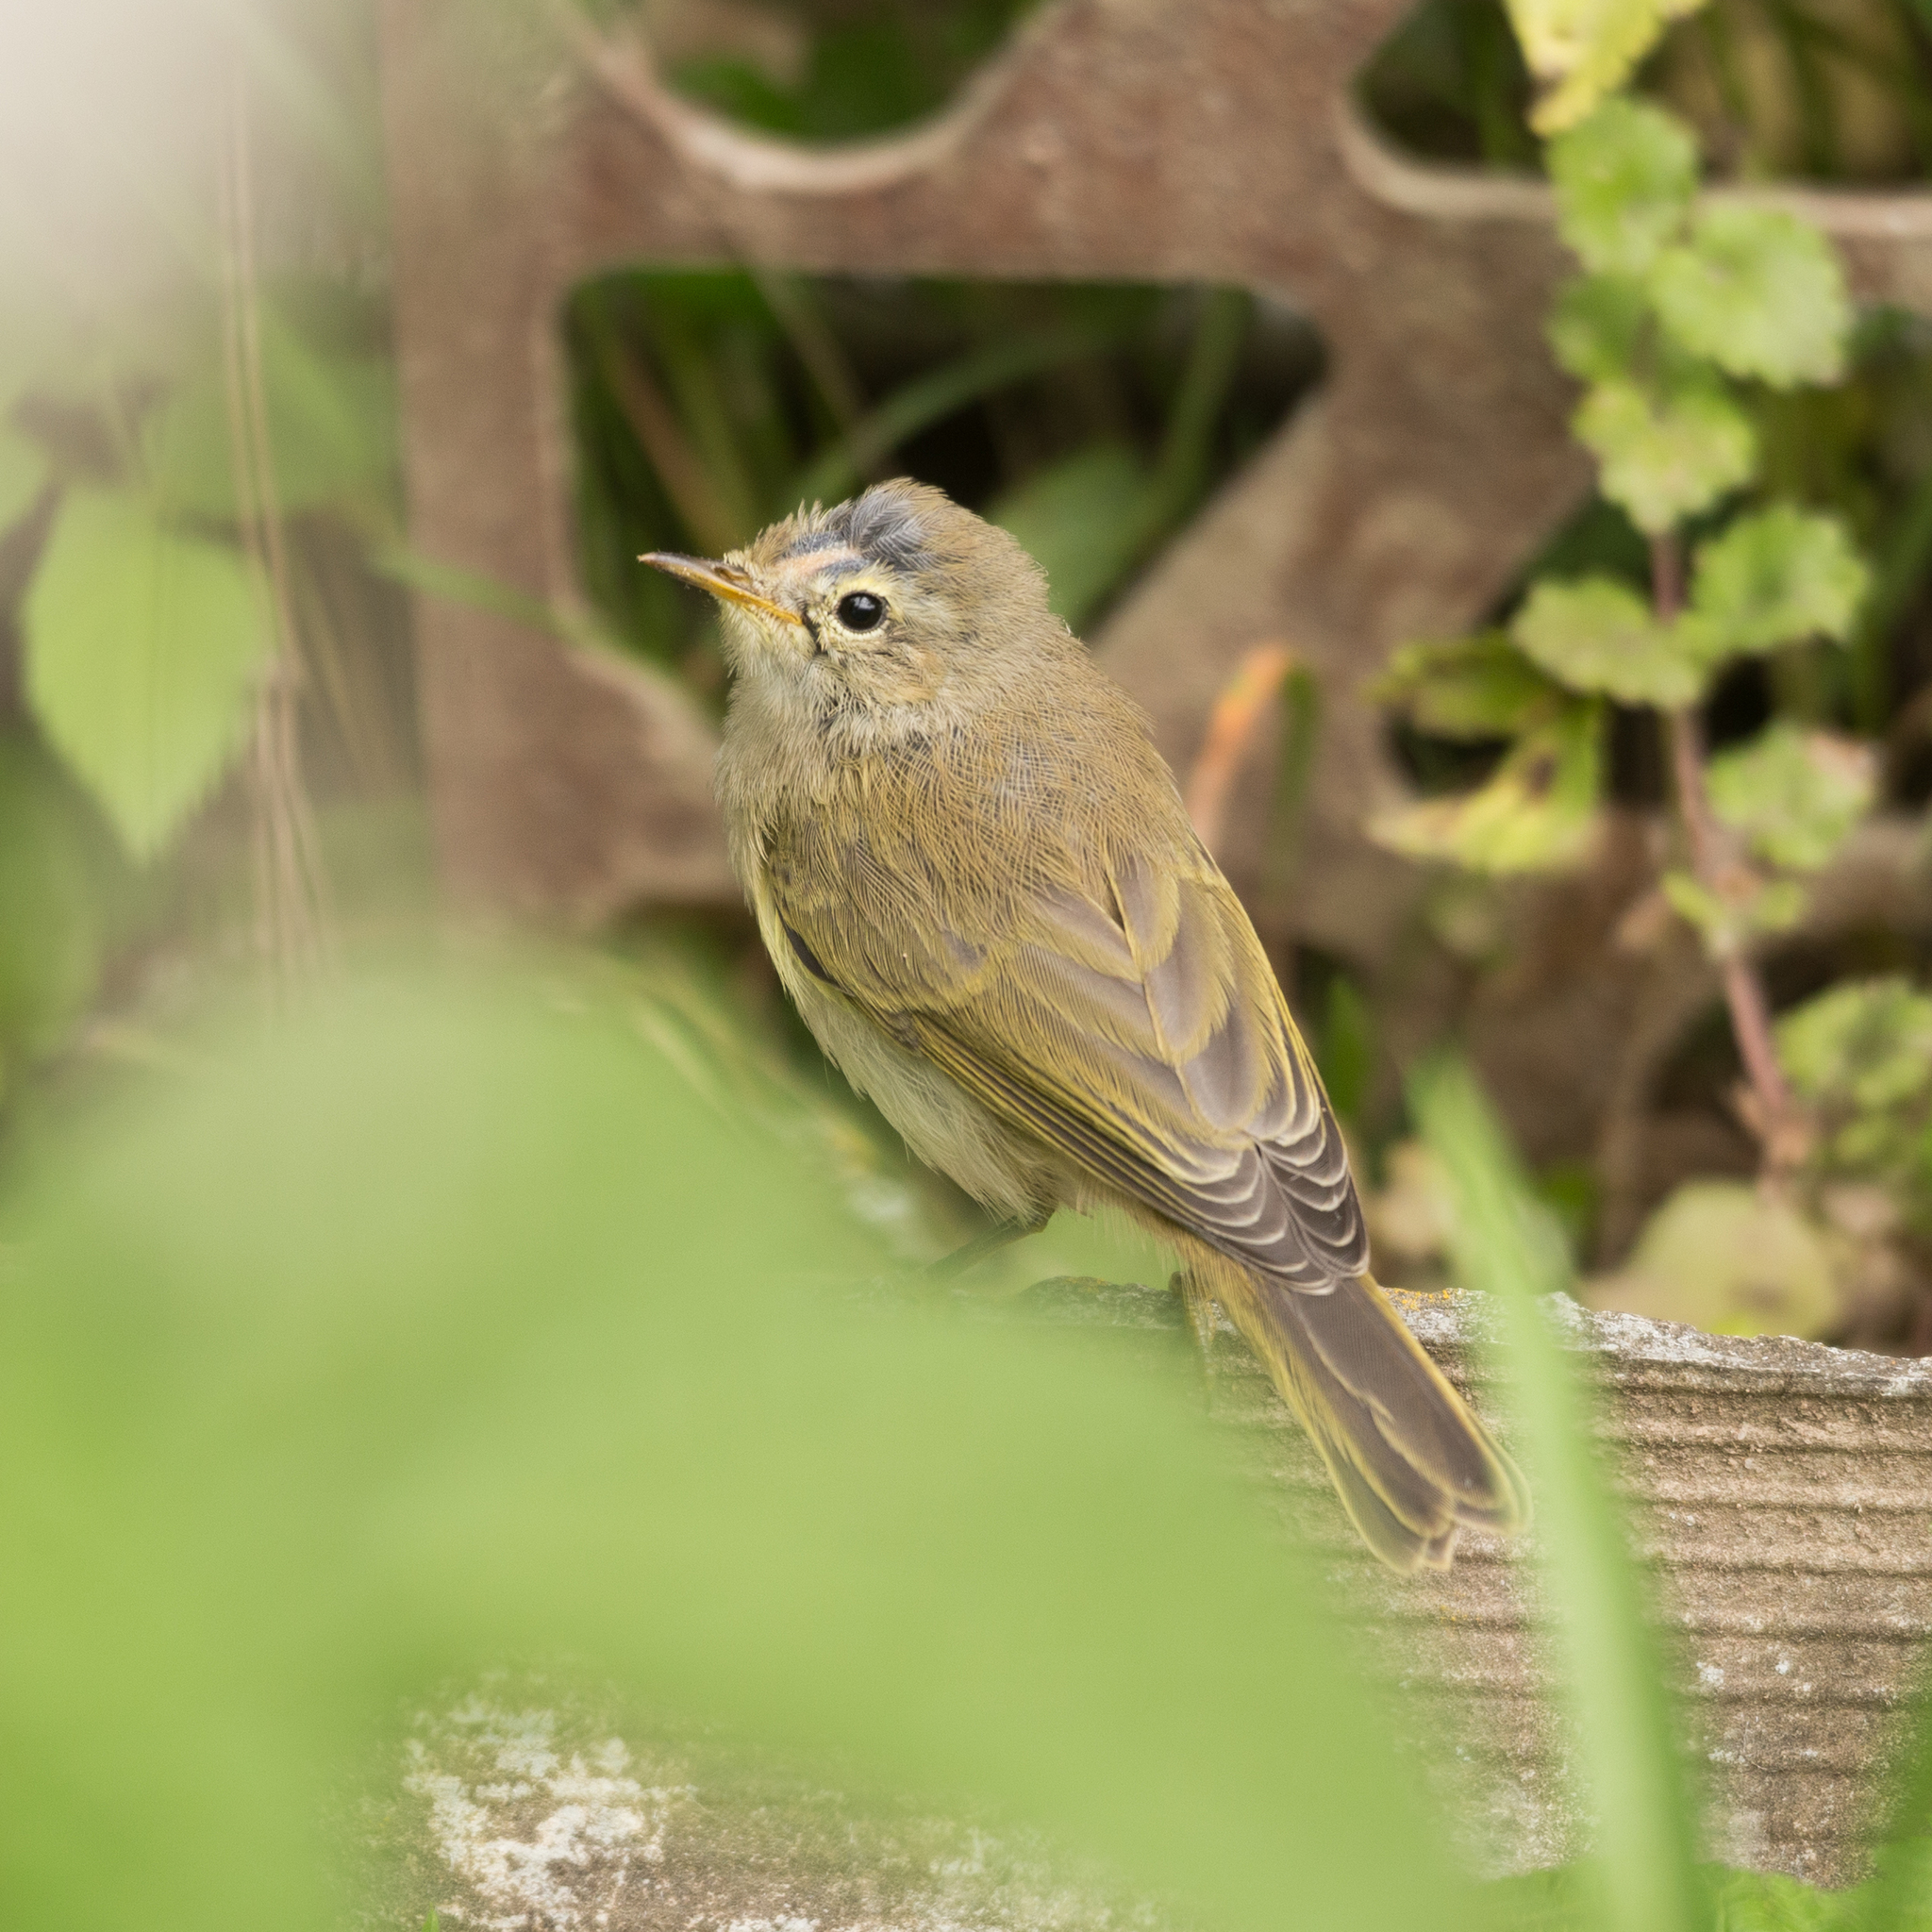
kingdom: Animalia
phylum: Chordata
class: Aves
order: Passeriformes
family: Phylloscopidae
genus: Phylloscopus
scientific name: Phylloscopus collybita
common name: Common chiffchaff
